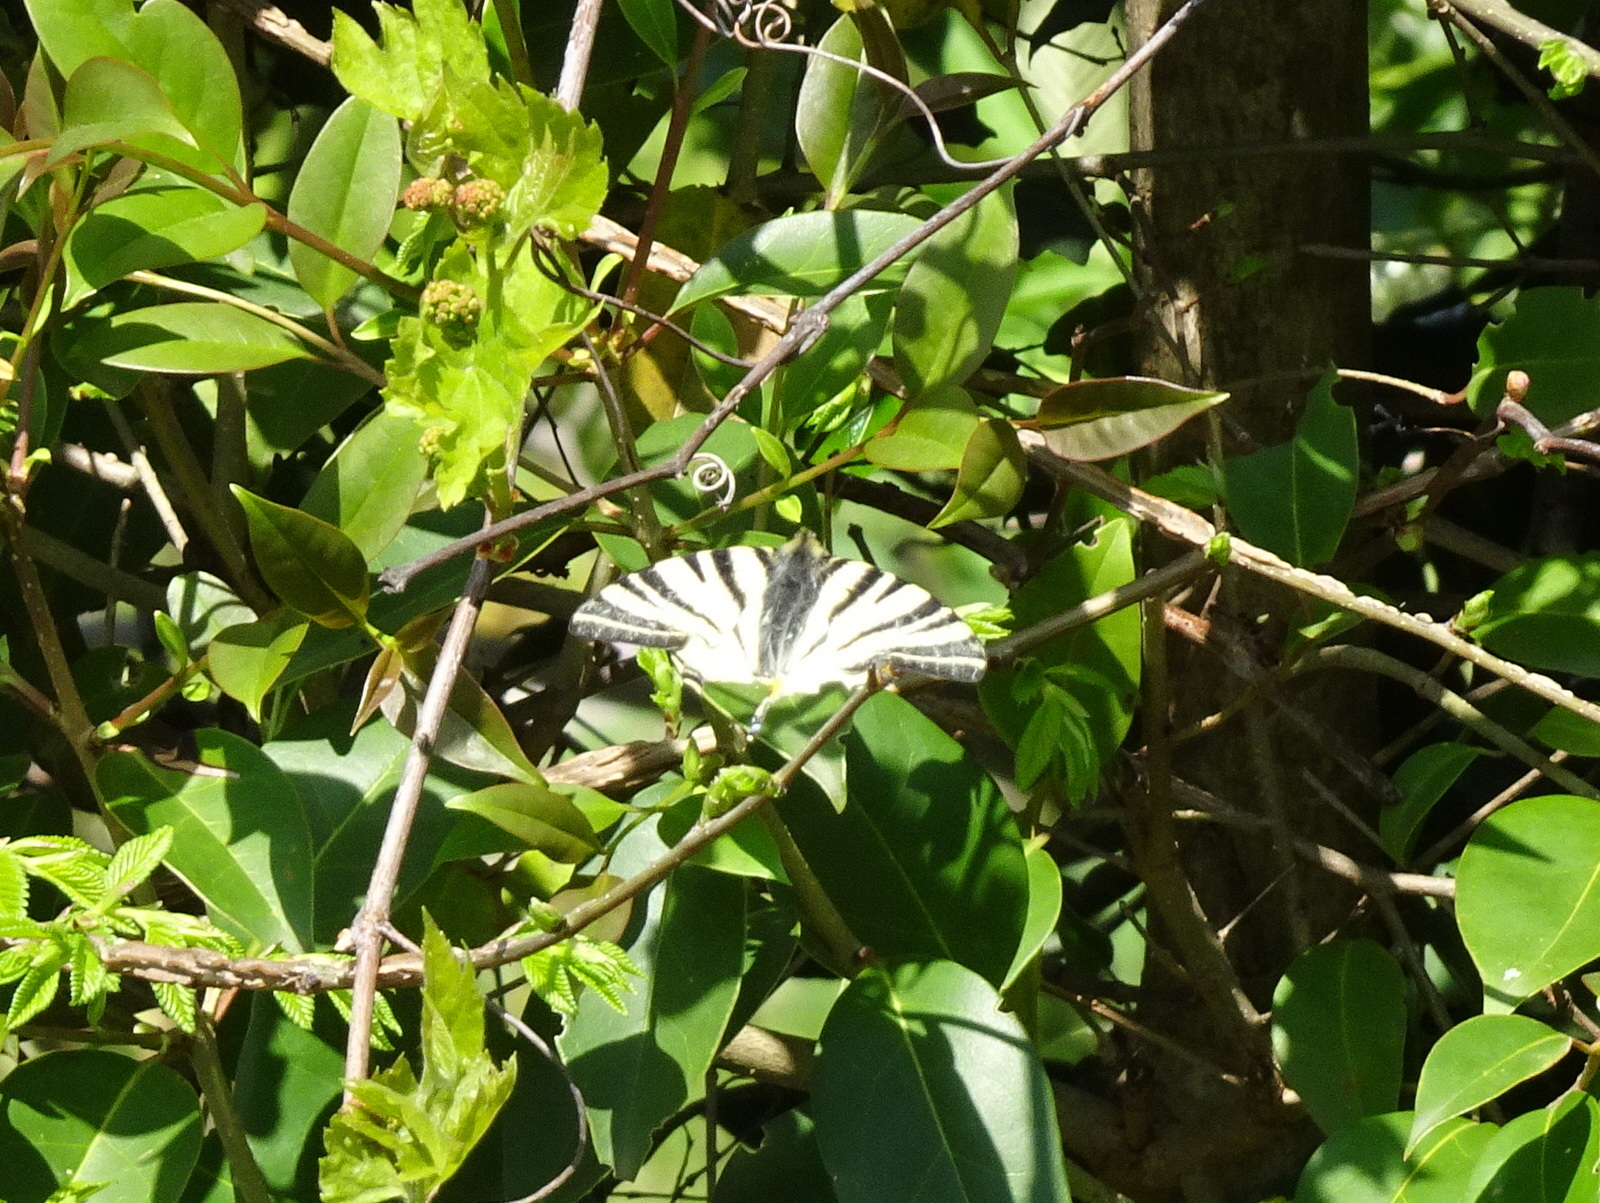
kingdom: Animalia
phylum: Arthropoda
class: Insecta
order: Lepidoptera
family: Papilionidae
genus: Iphiclides
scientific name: Iphiclides podalirius
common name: Scarce swallowtail
